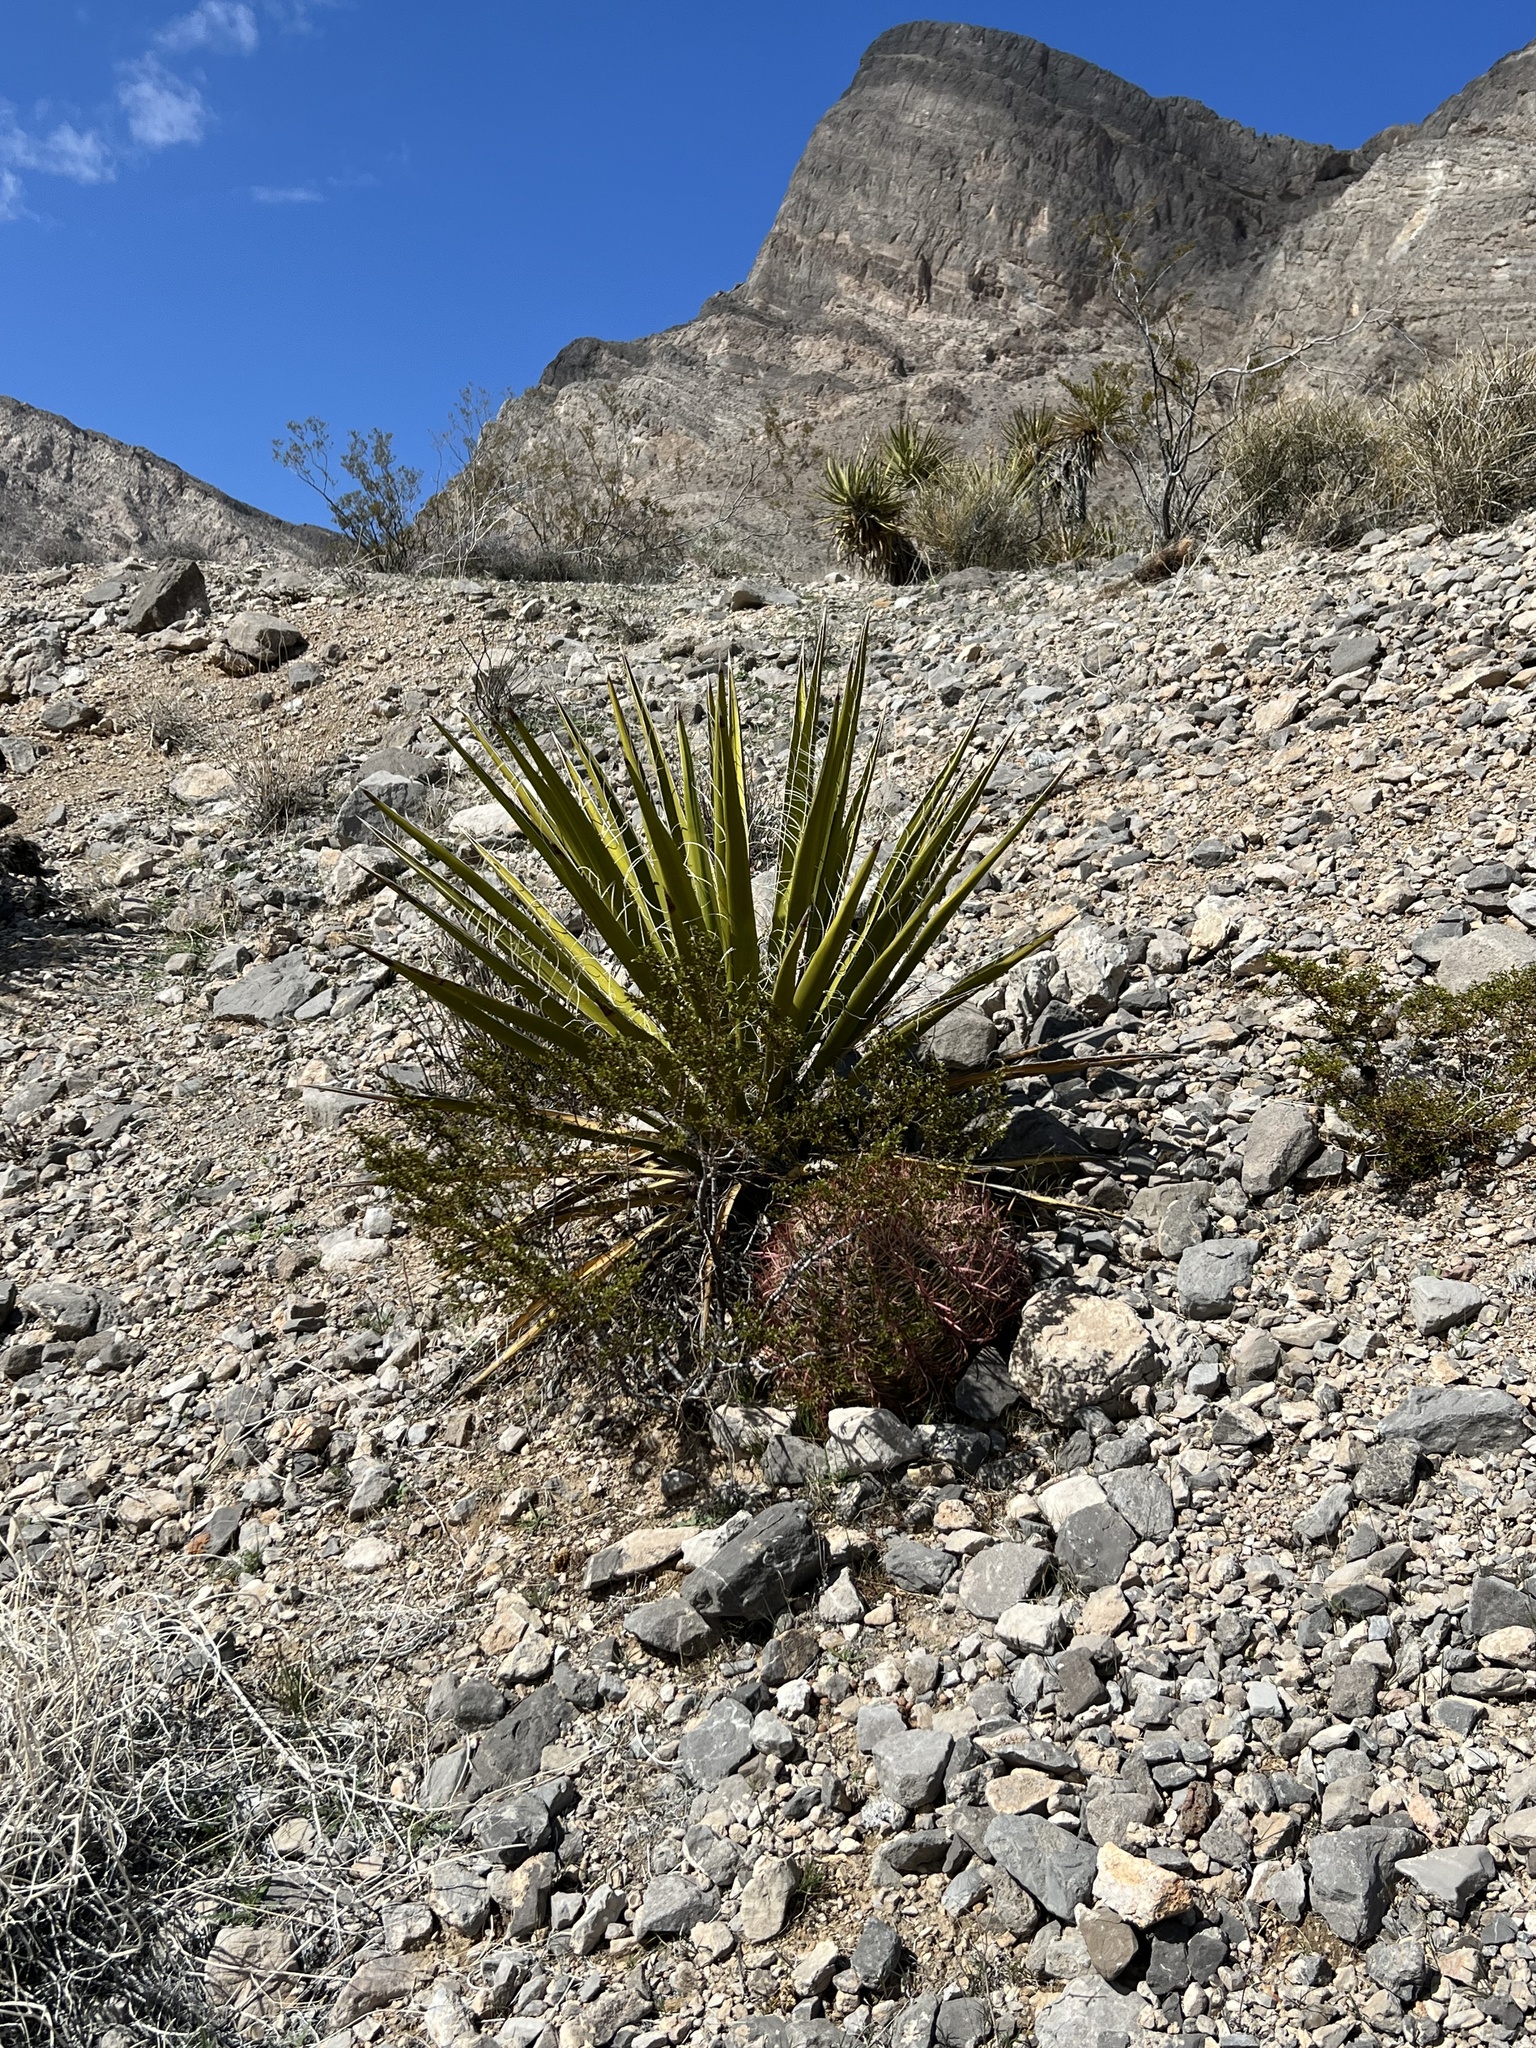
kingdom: Plantae
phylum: Tracheophyta
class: Liliopsida
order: Asparagales
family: Asparagaceae
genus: Yucca
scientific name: Yucca schidigera
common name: Mojave yucca
